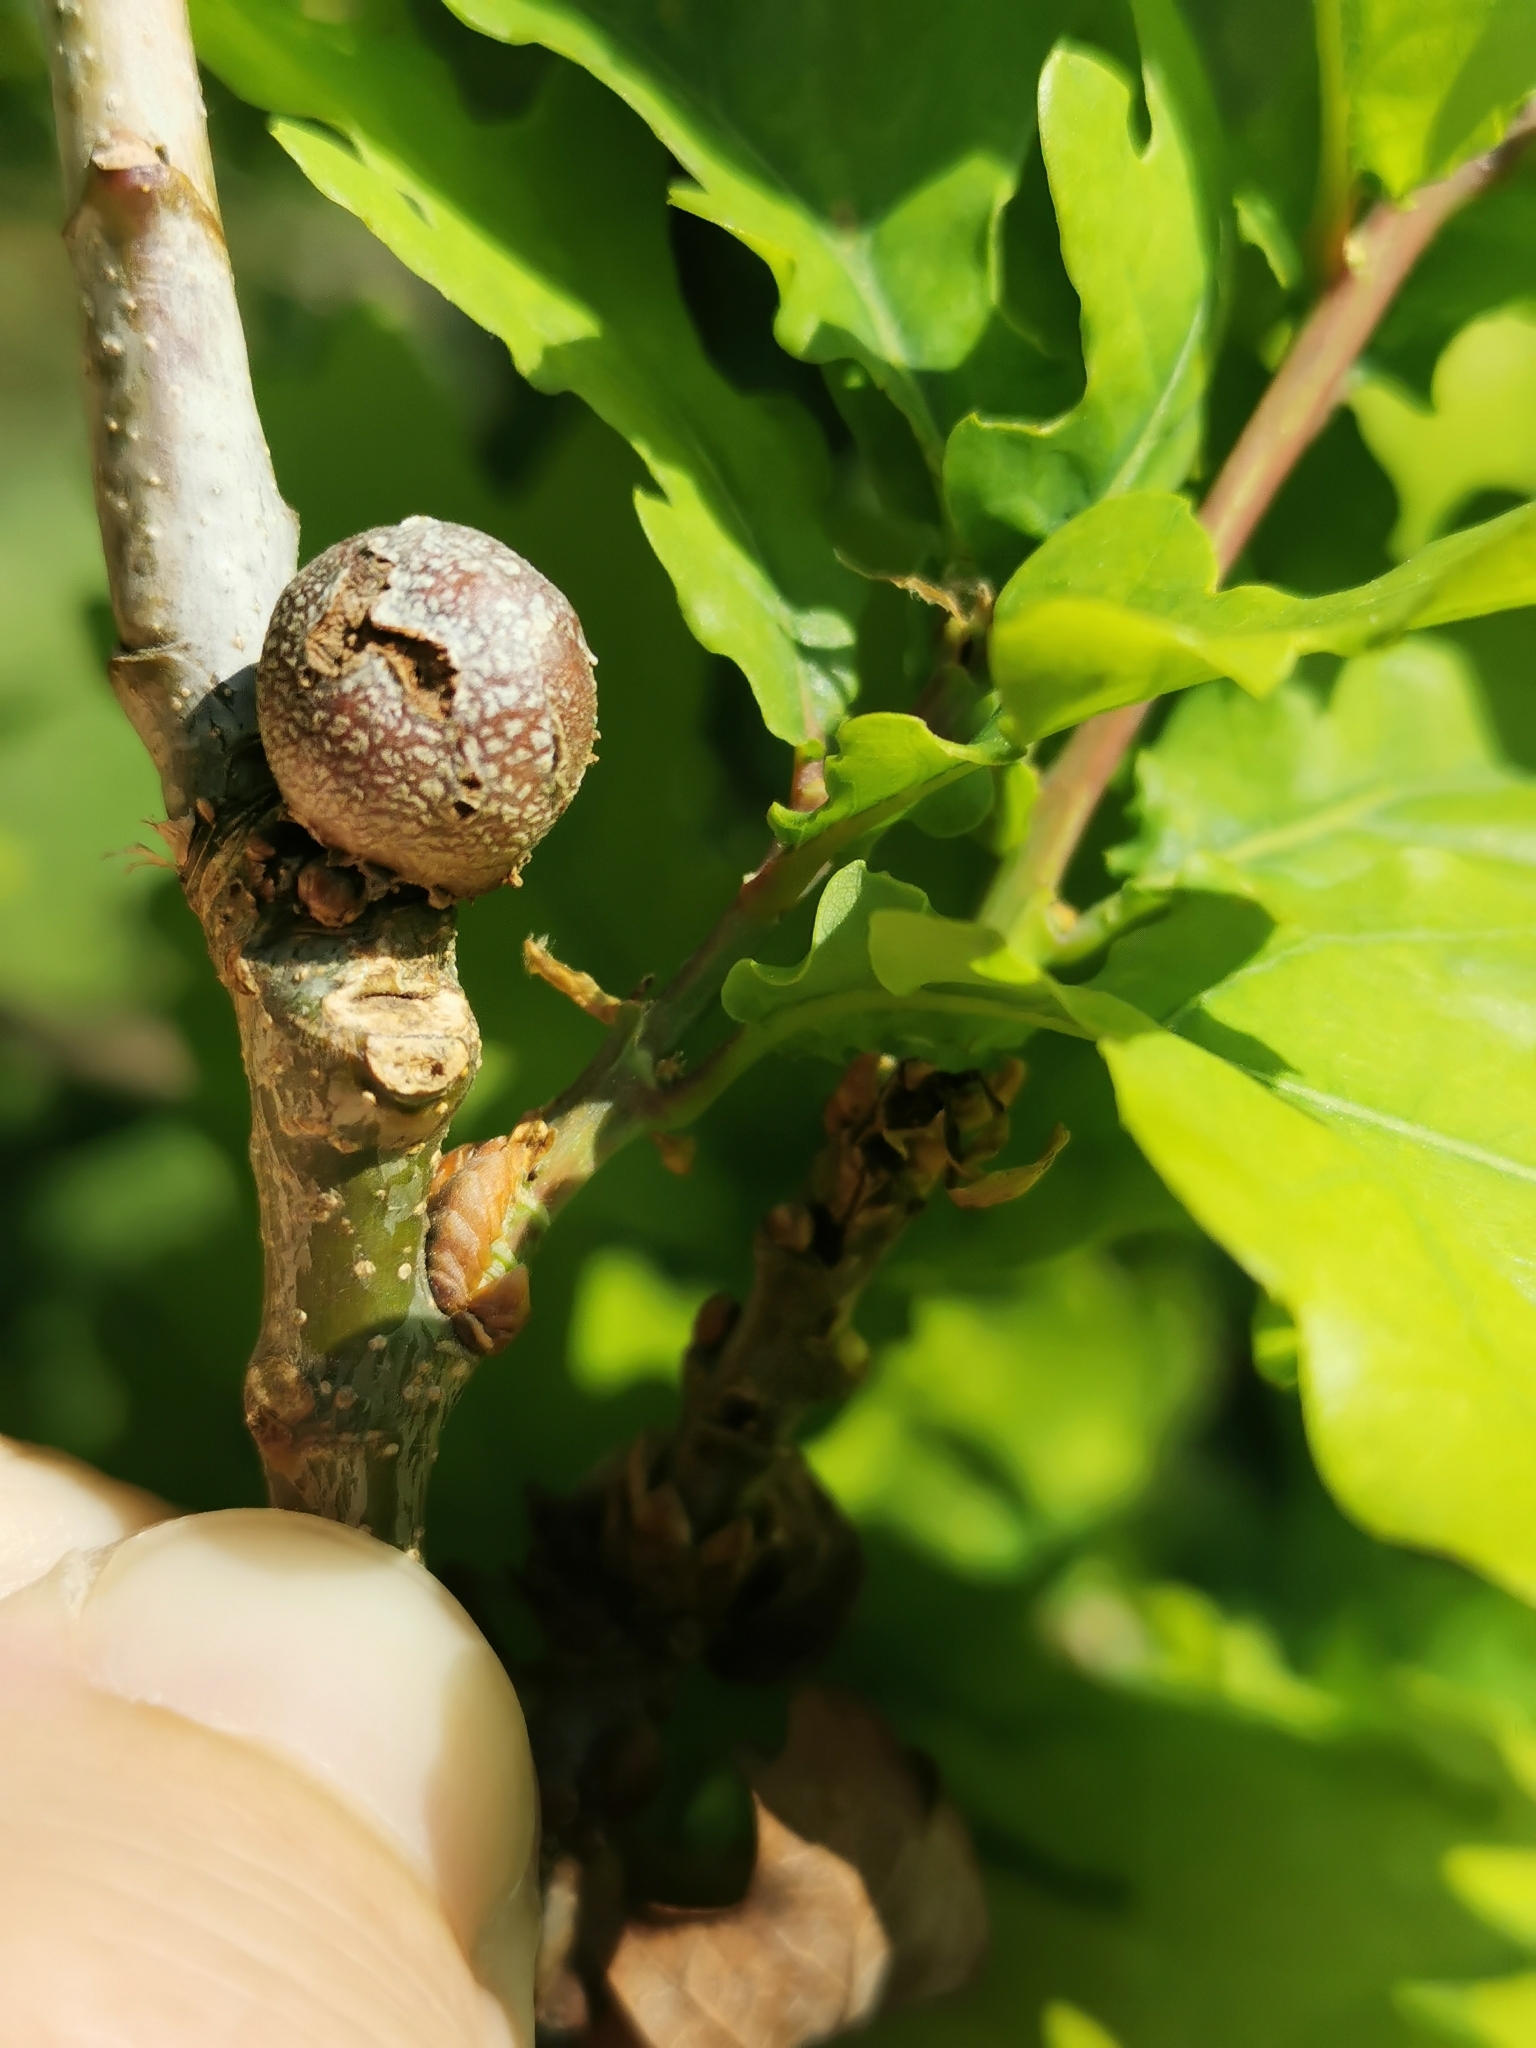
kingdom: Animalia
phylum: Arthropoda
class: Insecta
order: Hymenoptera
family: Cynipidae
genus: Andricus
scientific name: Andricus lignicolus
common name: Cola-nut gall
